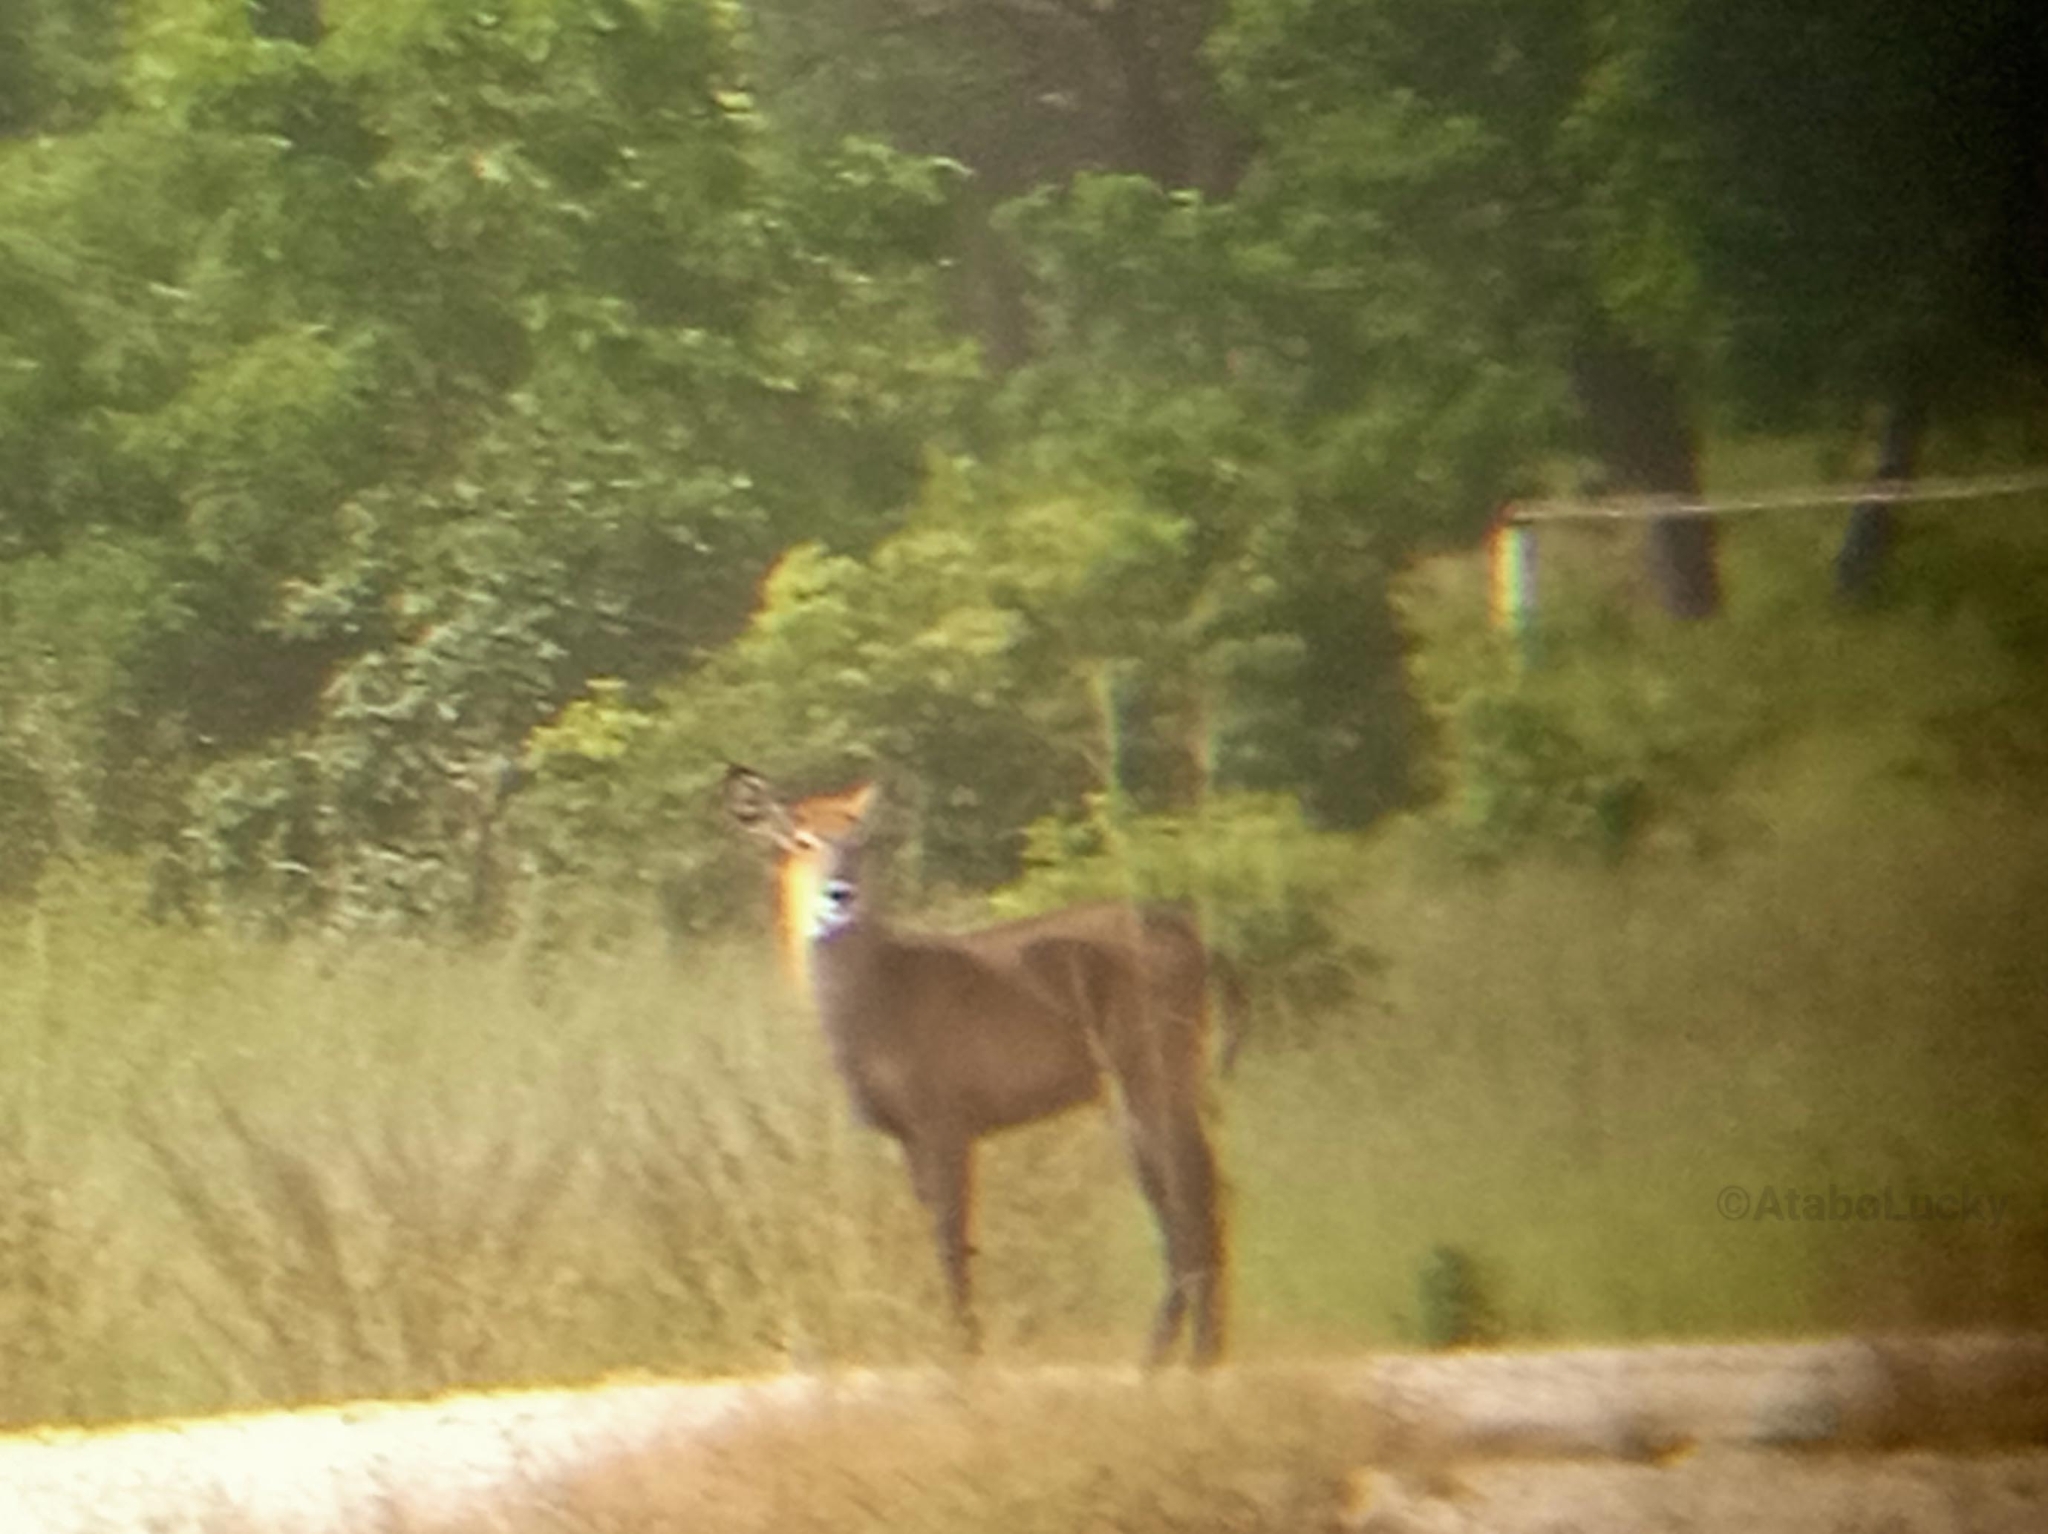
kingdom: Animalia
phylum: Chordata
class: Mammalia
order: Artiodactyla
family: Bovidae
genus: Kobus
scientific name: Kobus ellipsiprymnus
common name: Waterbuck
